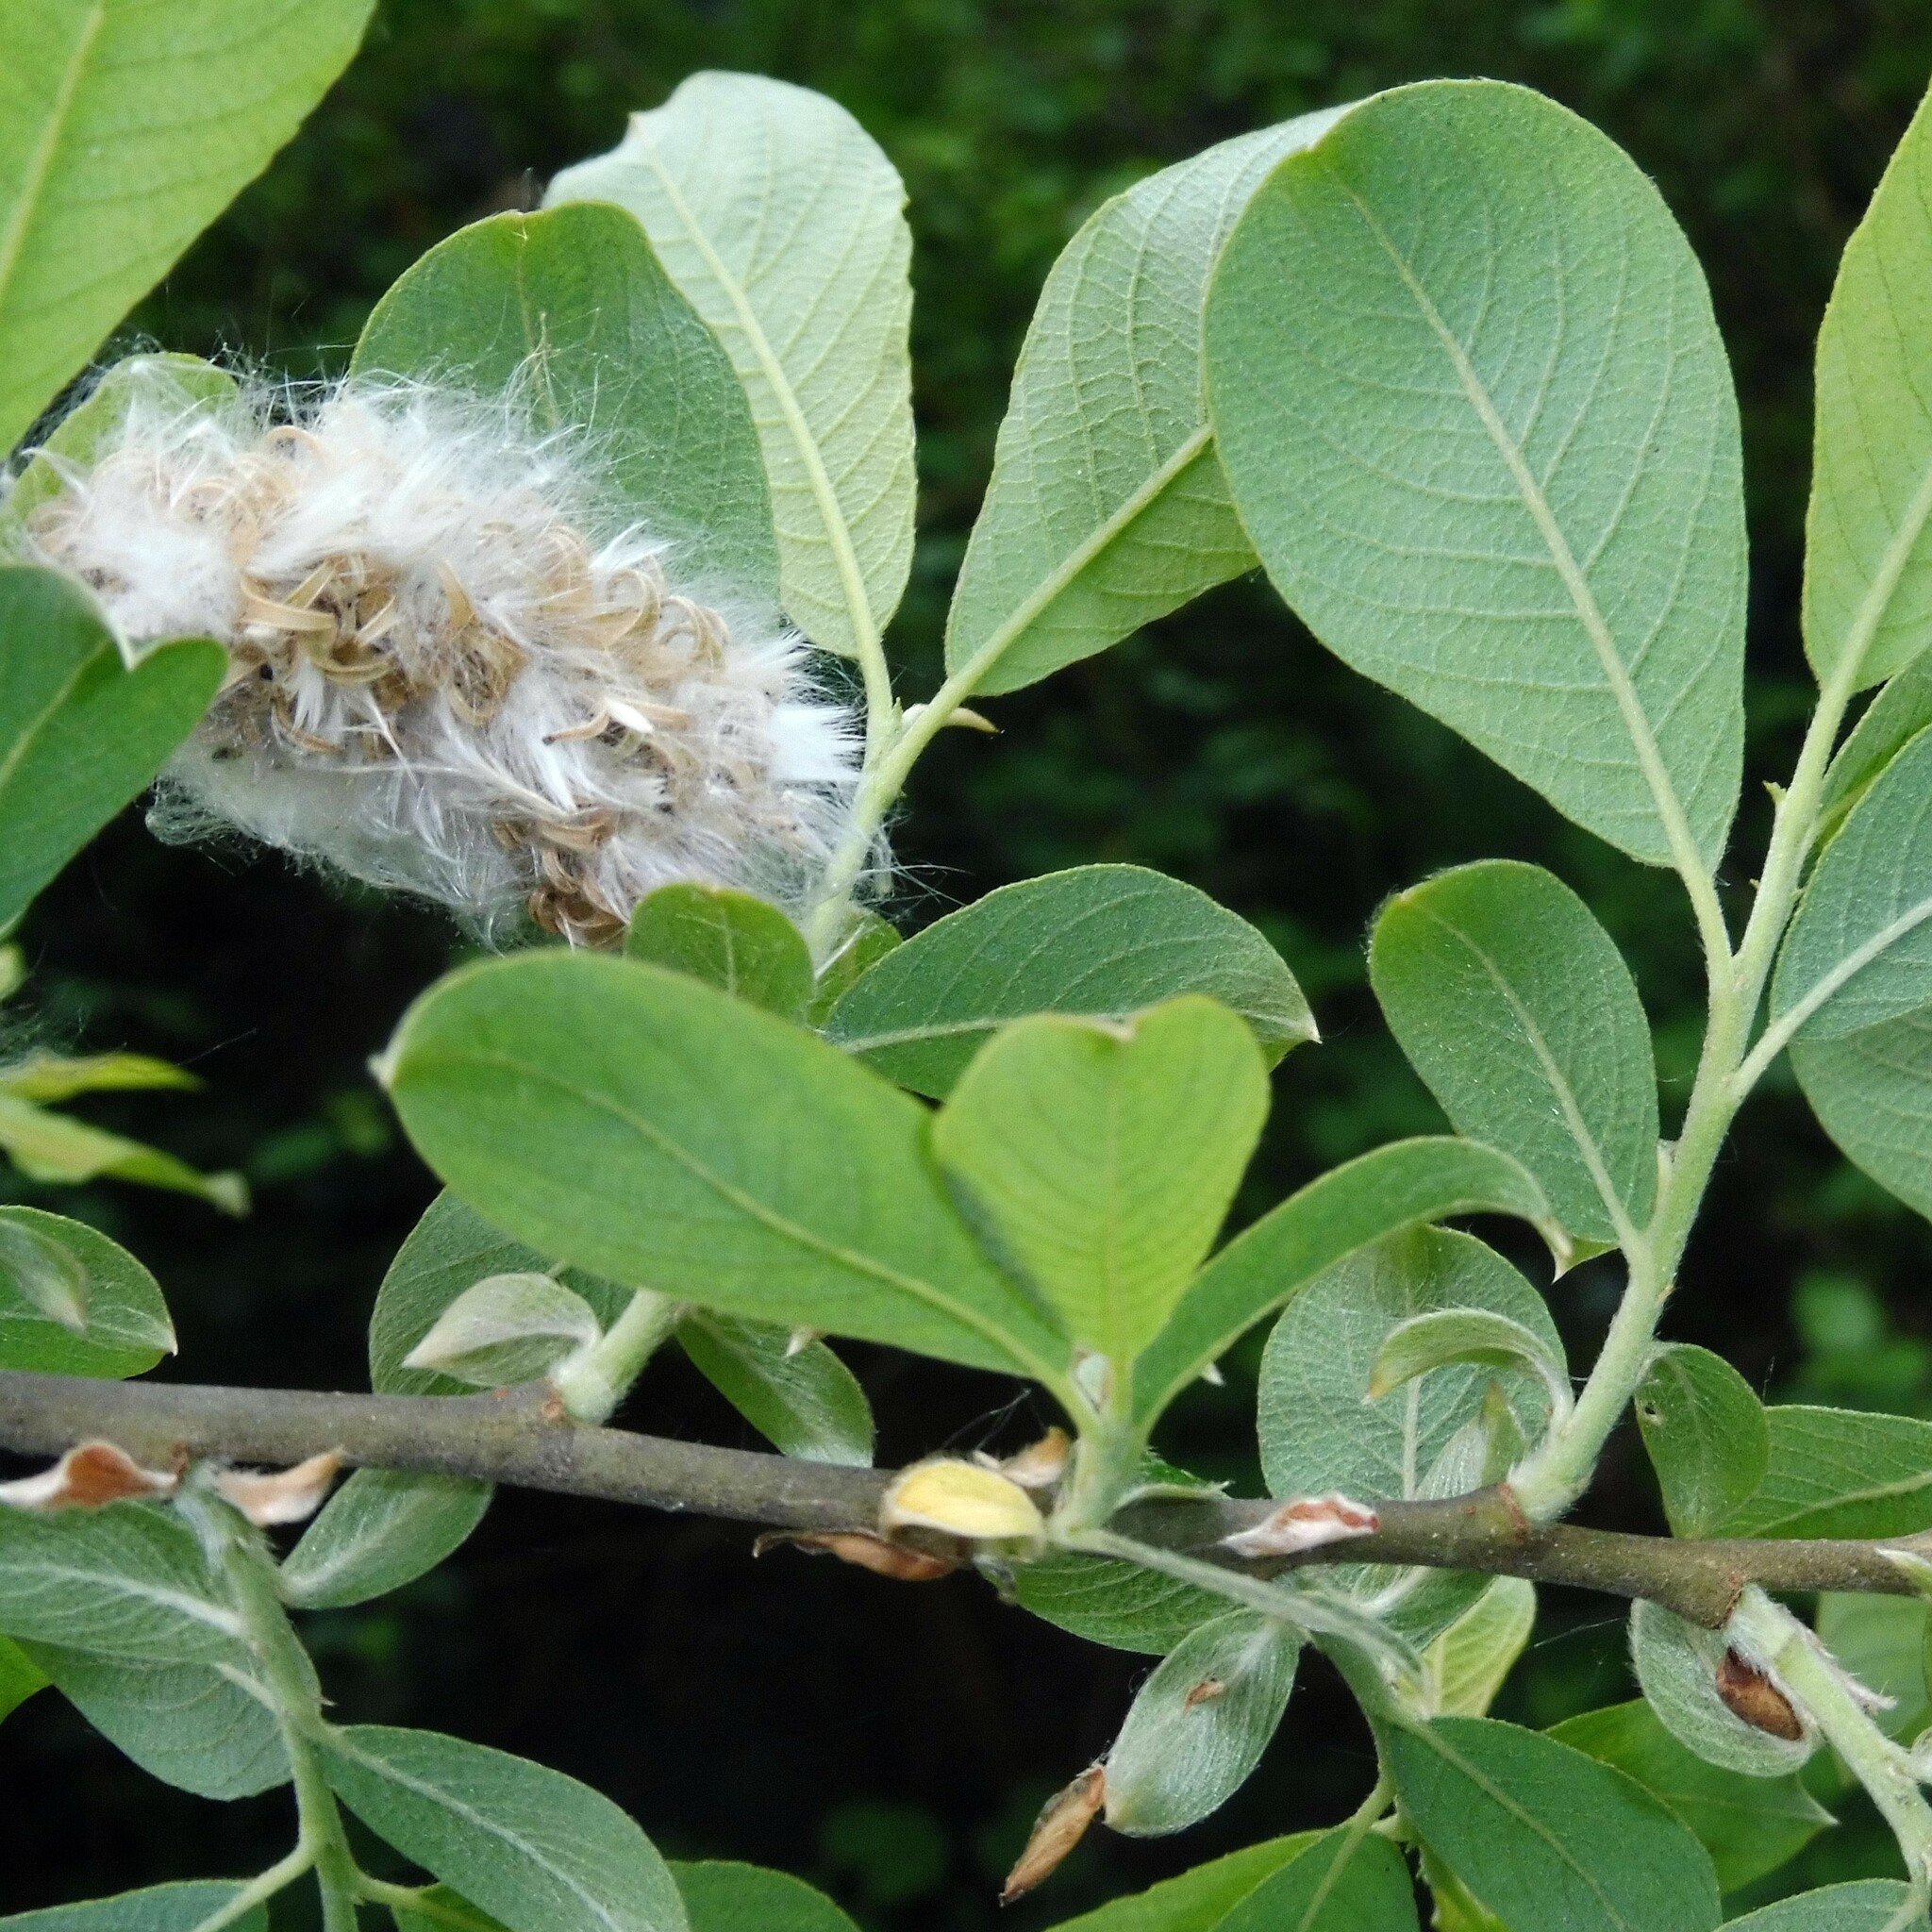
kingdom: Plantae
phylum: Tracheophyta
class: Magnoliopsida
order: Malpighiales
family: Salicaceae
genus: Salix
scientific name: Salix caprea
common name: Goat willow
